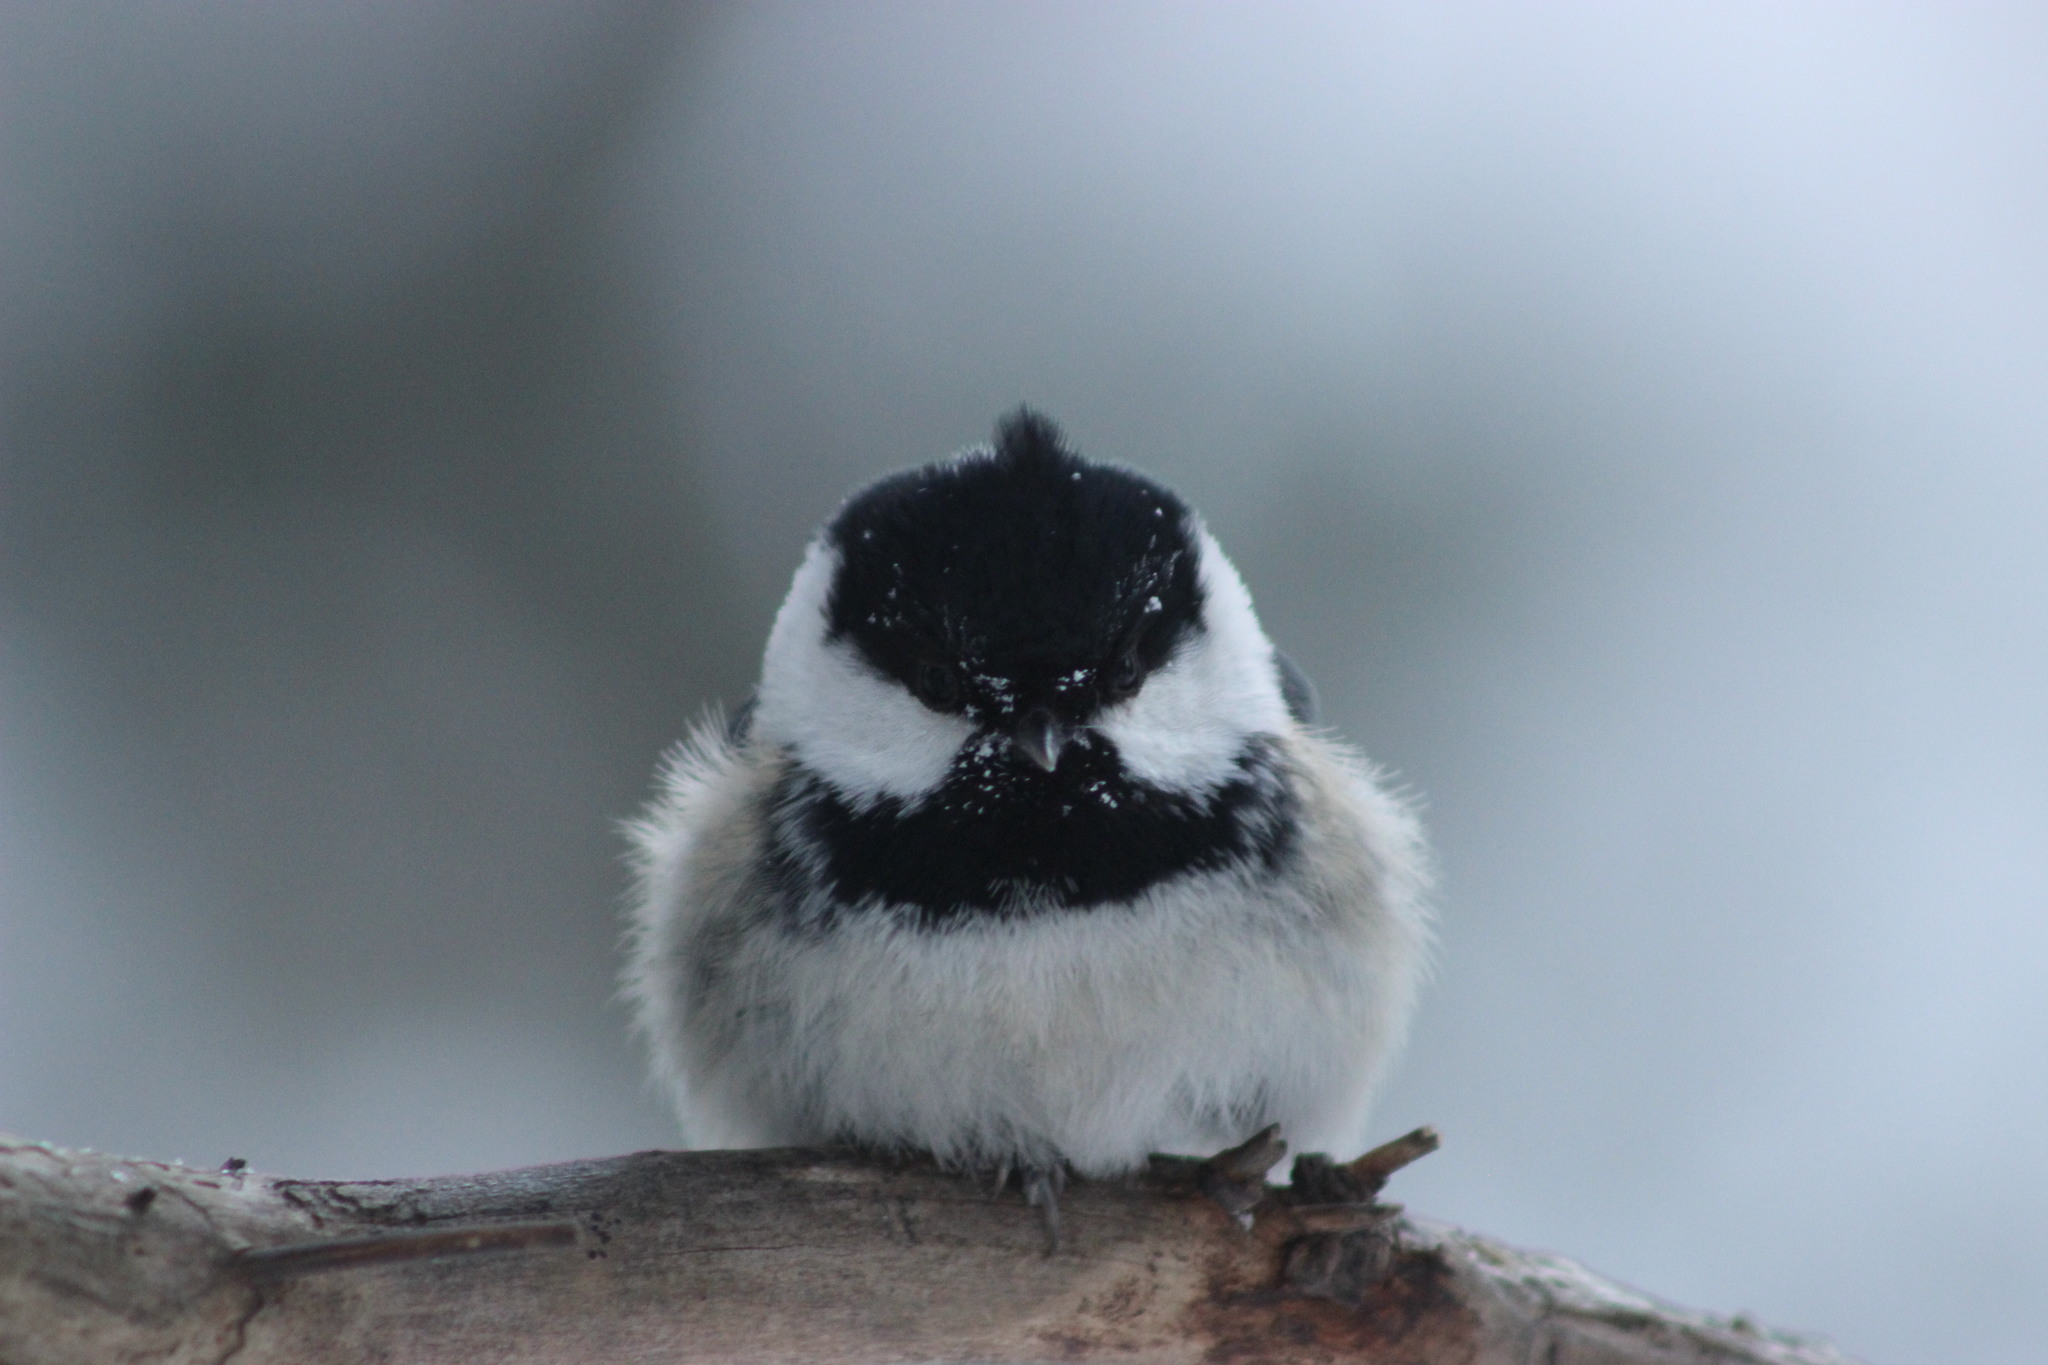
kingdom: Animalia
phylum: Chordata
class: Aves
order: Passeriformes
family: Paridae
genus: Periparus
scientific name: Periparus ater
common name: Coal tit
